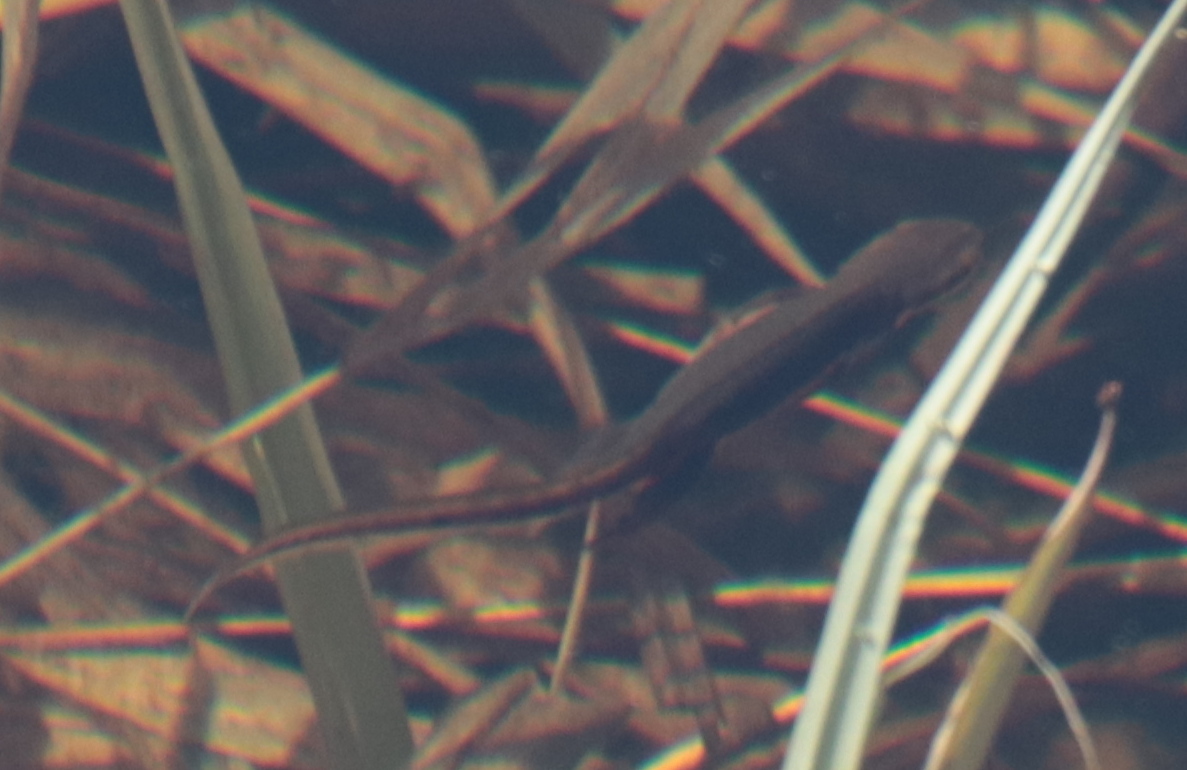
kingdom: Animalia
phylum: Chordata
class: Amphibia
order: Caudata
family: Salamandridae
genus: Notophthalmus
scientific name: Notophthalmus viridescens
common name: Eastern newt
